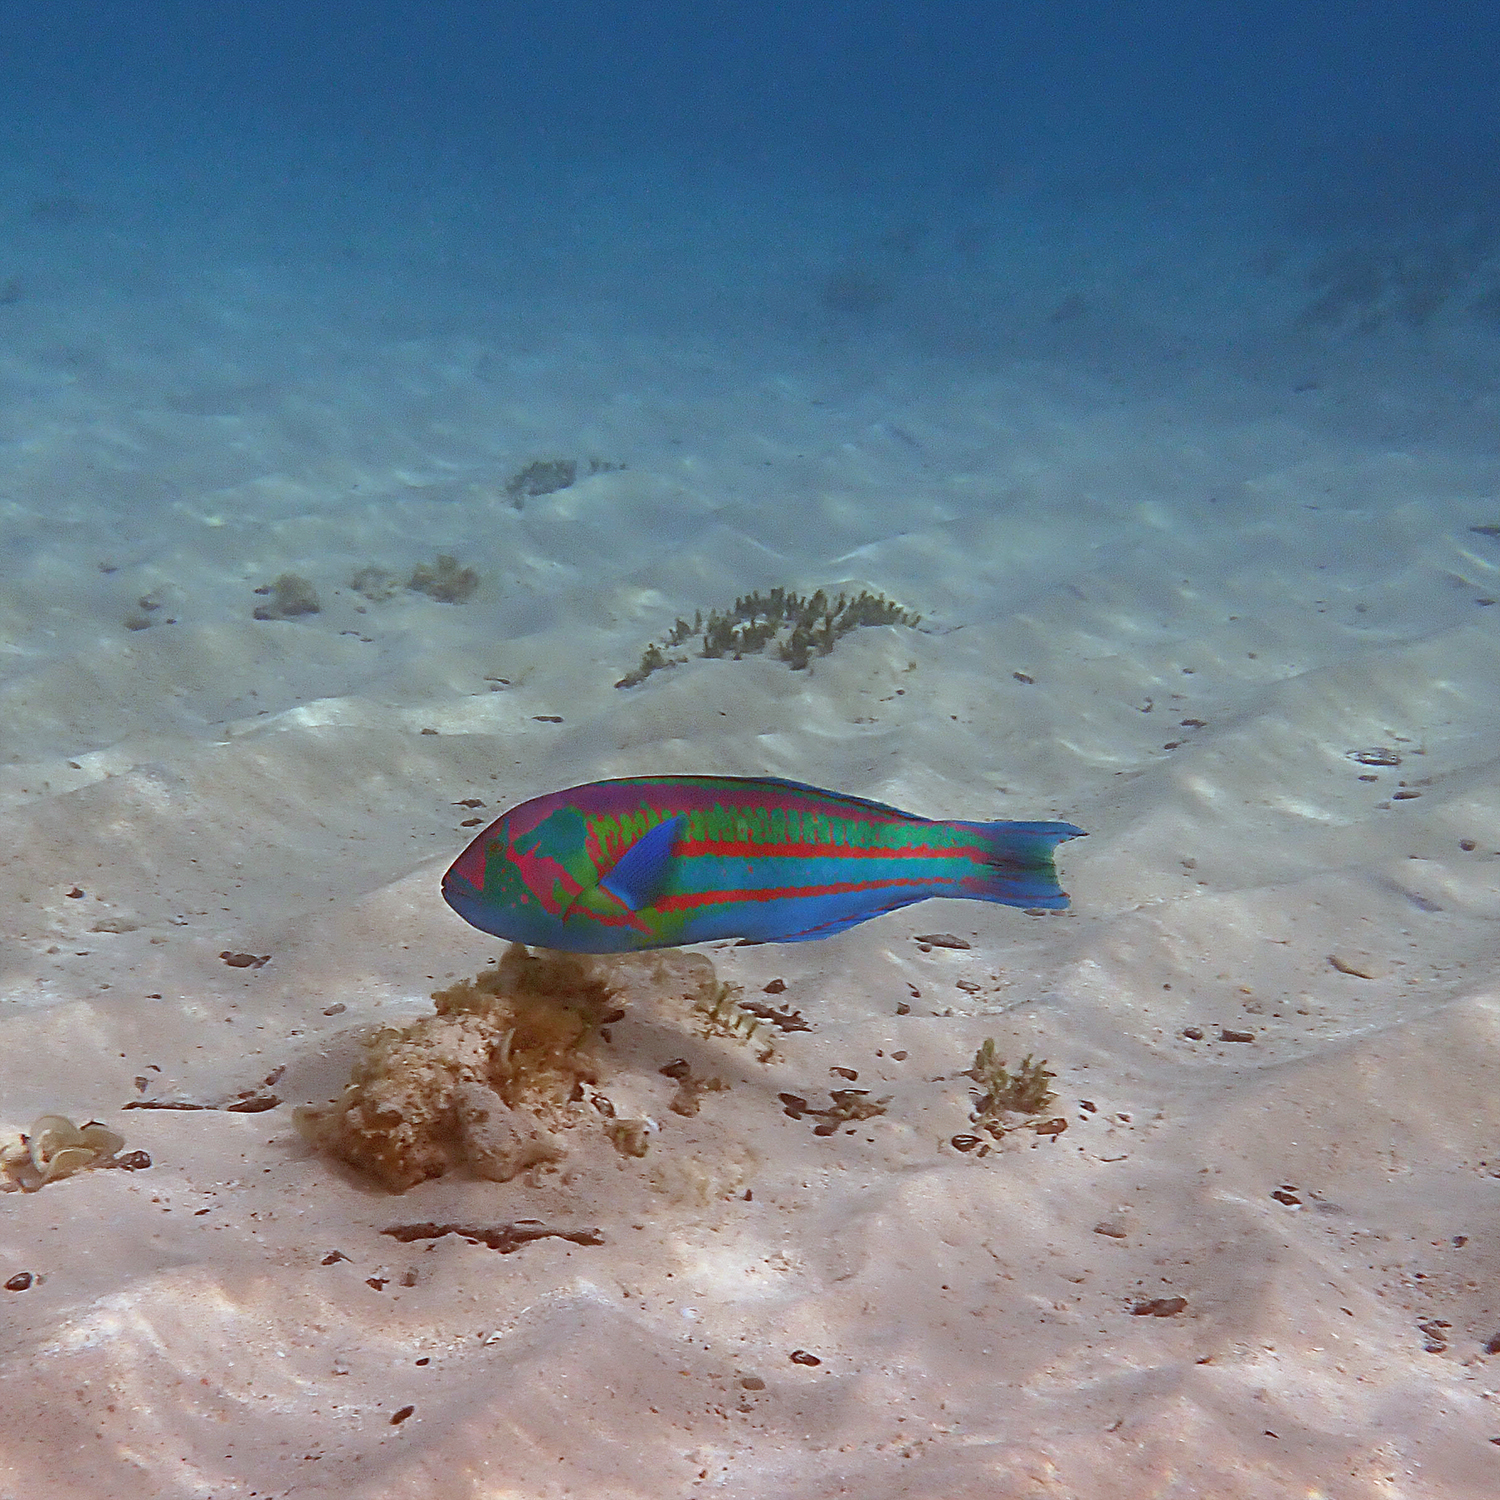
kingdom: Animalia
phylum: Chordata
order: Perciformes
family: Labridae
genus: Thalassoma
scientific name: Thalassoma purpureum
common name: Parrotfish
